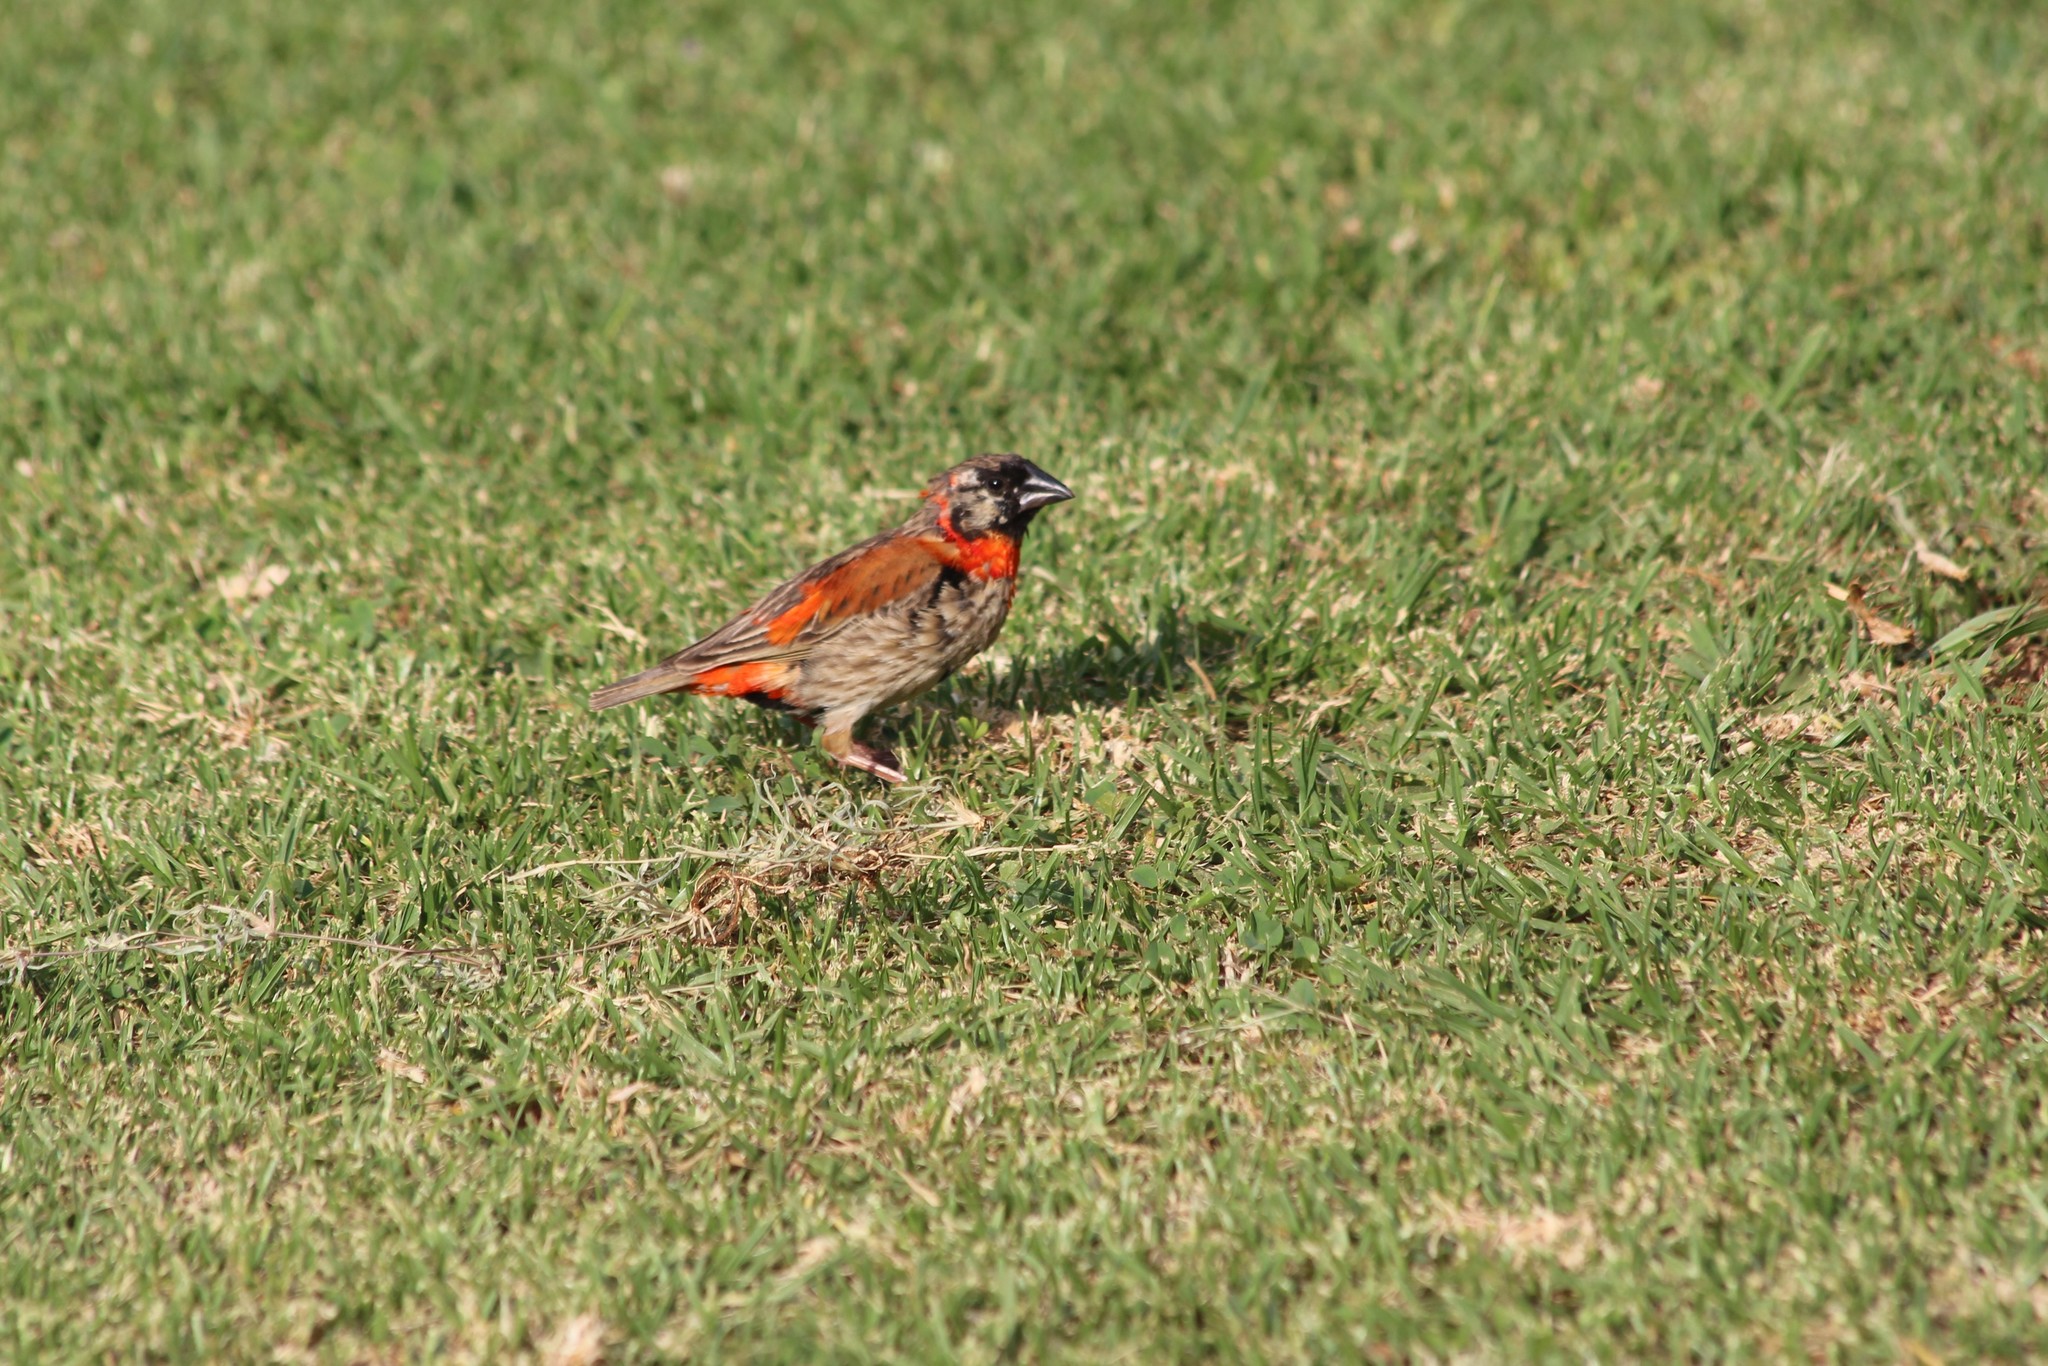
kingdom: Animalia
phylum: Chordata
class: Aves
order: Passeriformes
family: Ploceidae
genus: Euplectes
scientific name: Euplectes orix
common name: Southern red bishop
